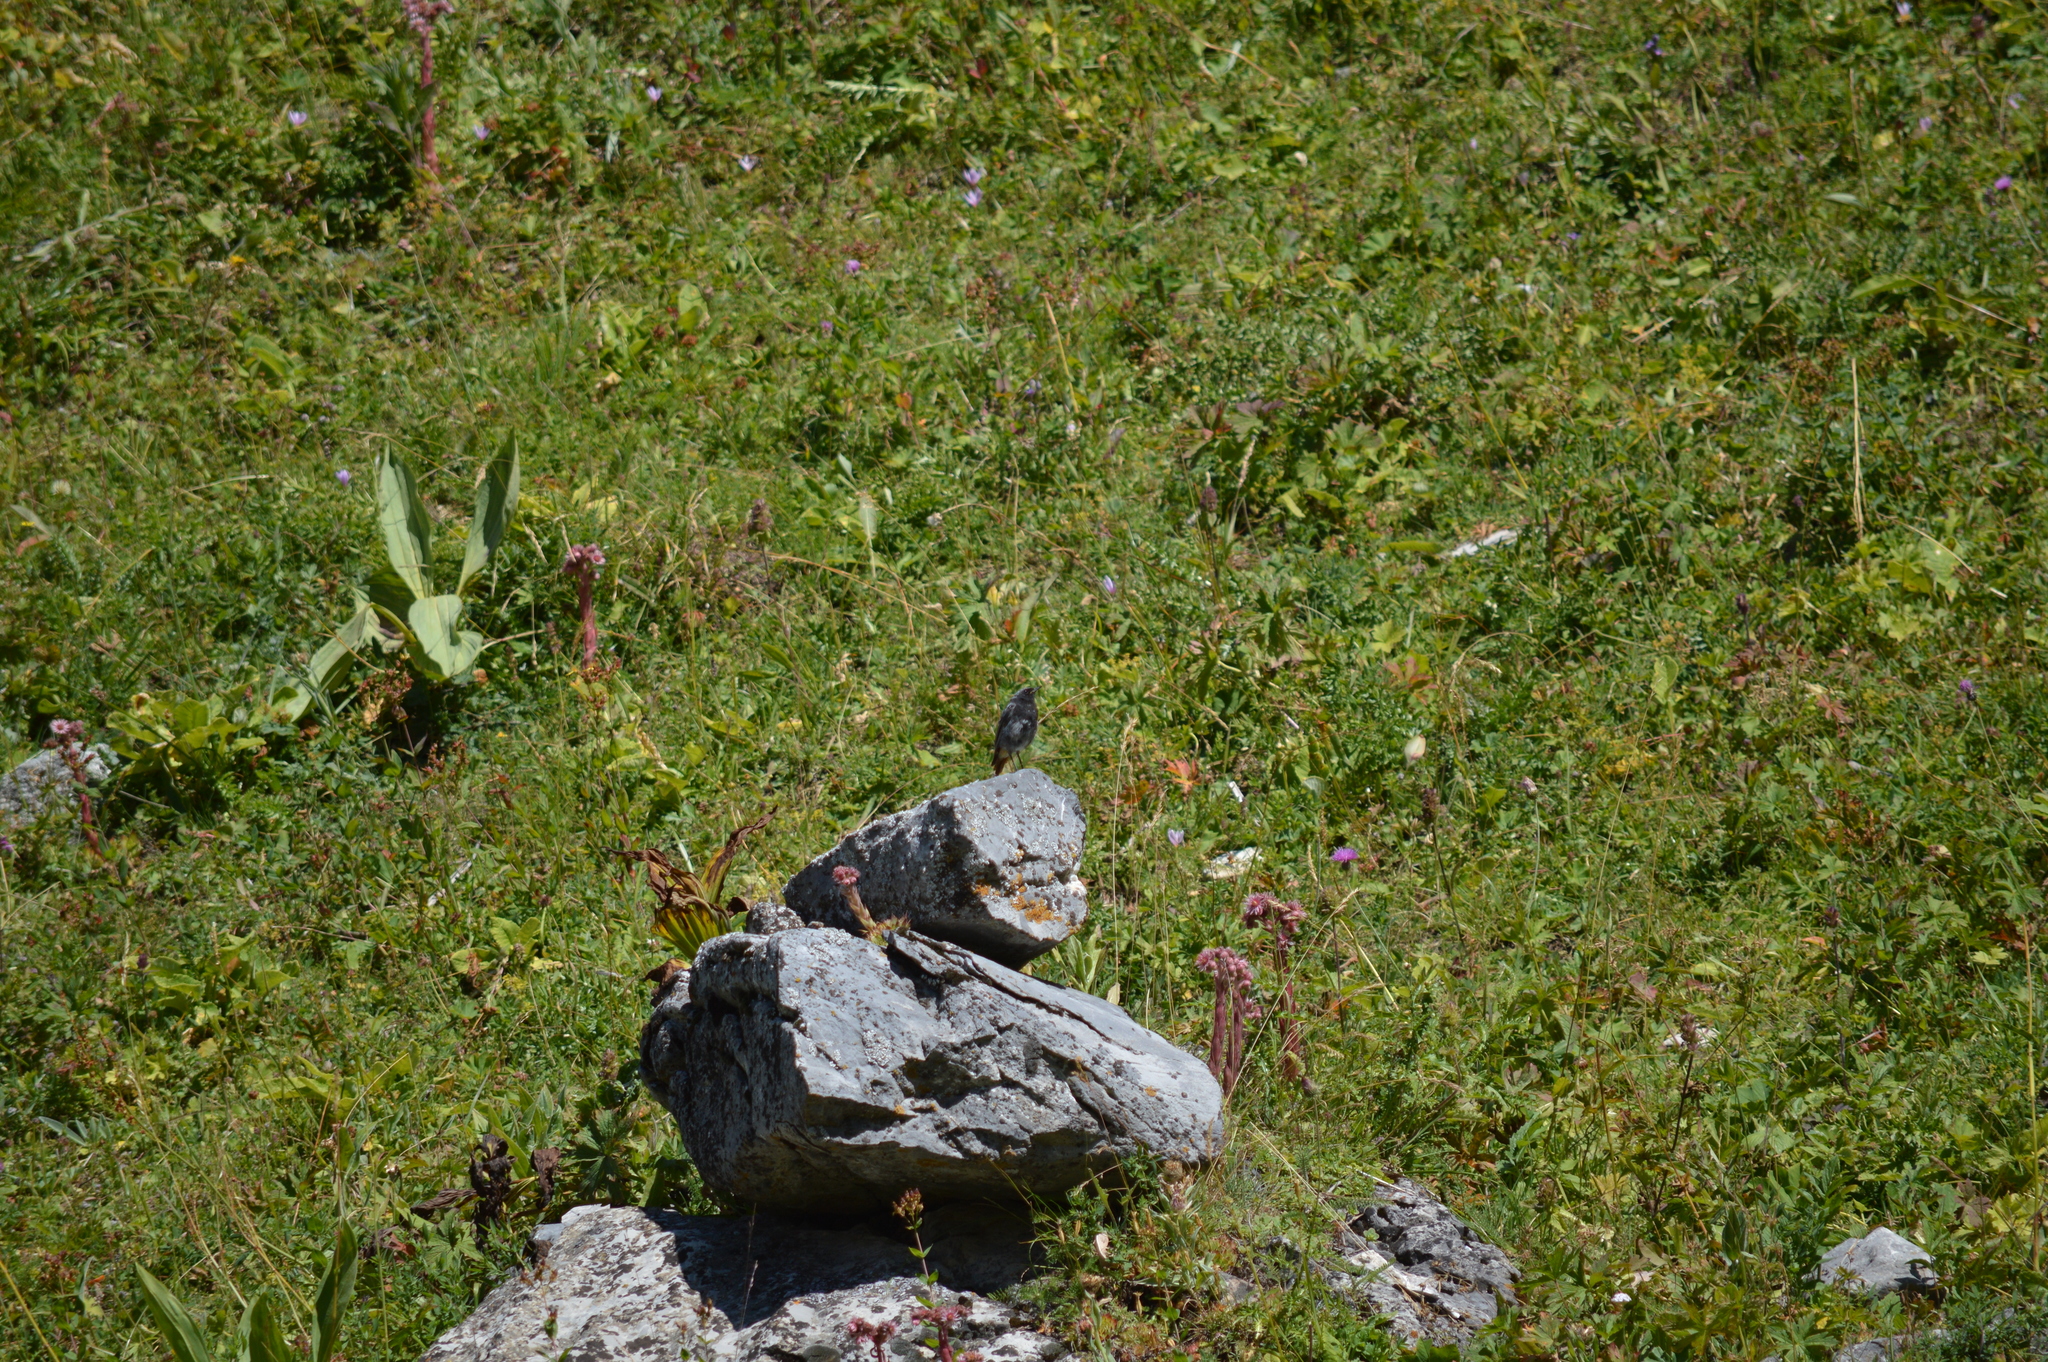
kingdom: Animalia
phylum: Chordata
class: Aves
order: Passeriformes
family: Muscicapidae
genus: Phoenicurus
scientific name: Phoenicurus ochruros
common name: Black redstart
